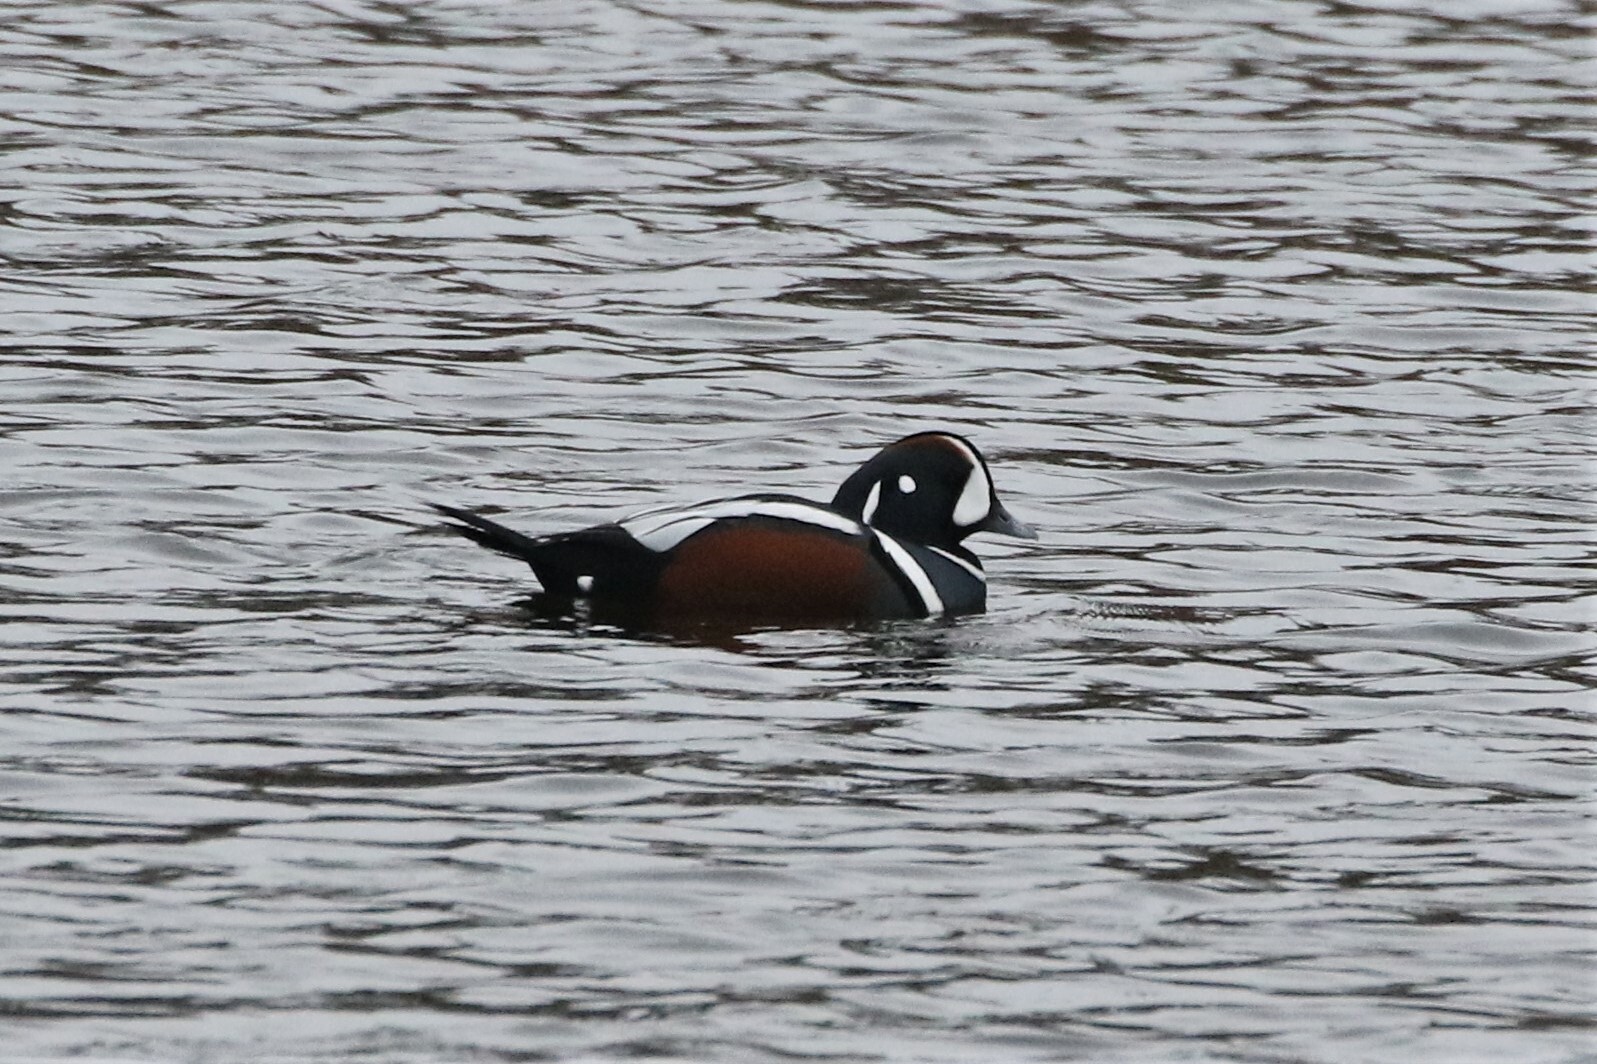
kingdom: Animalia
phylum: Chordata
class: Aves
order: Anseriformes
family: Anatidae
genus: Histrionicus
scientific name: Histrionicus histrionicus
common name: Harlequin duck
